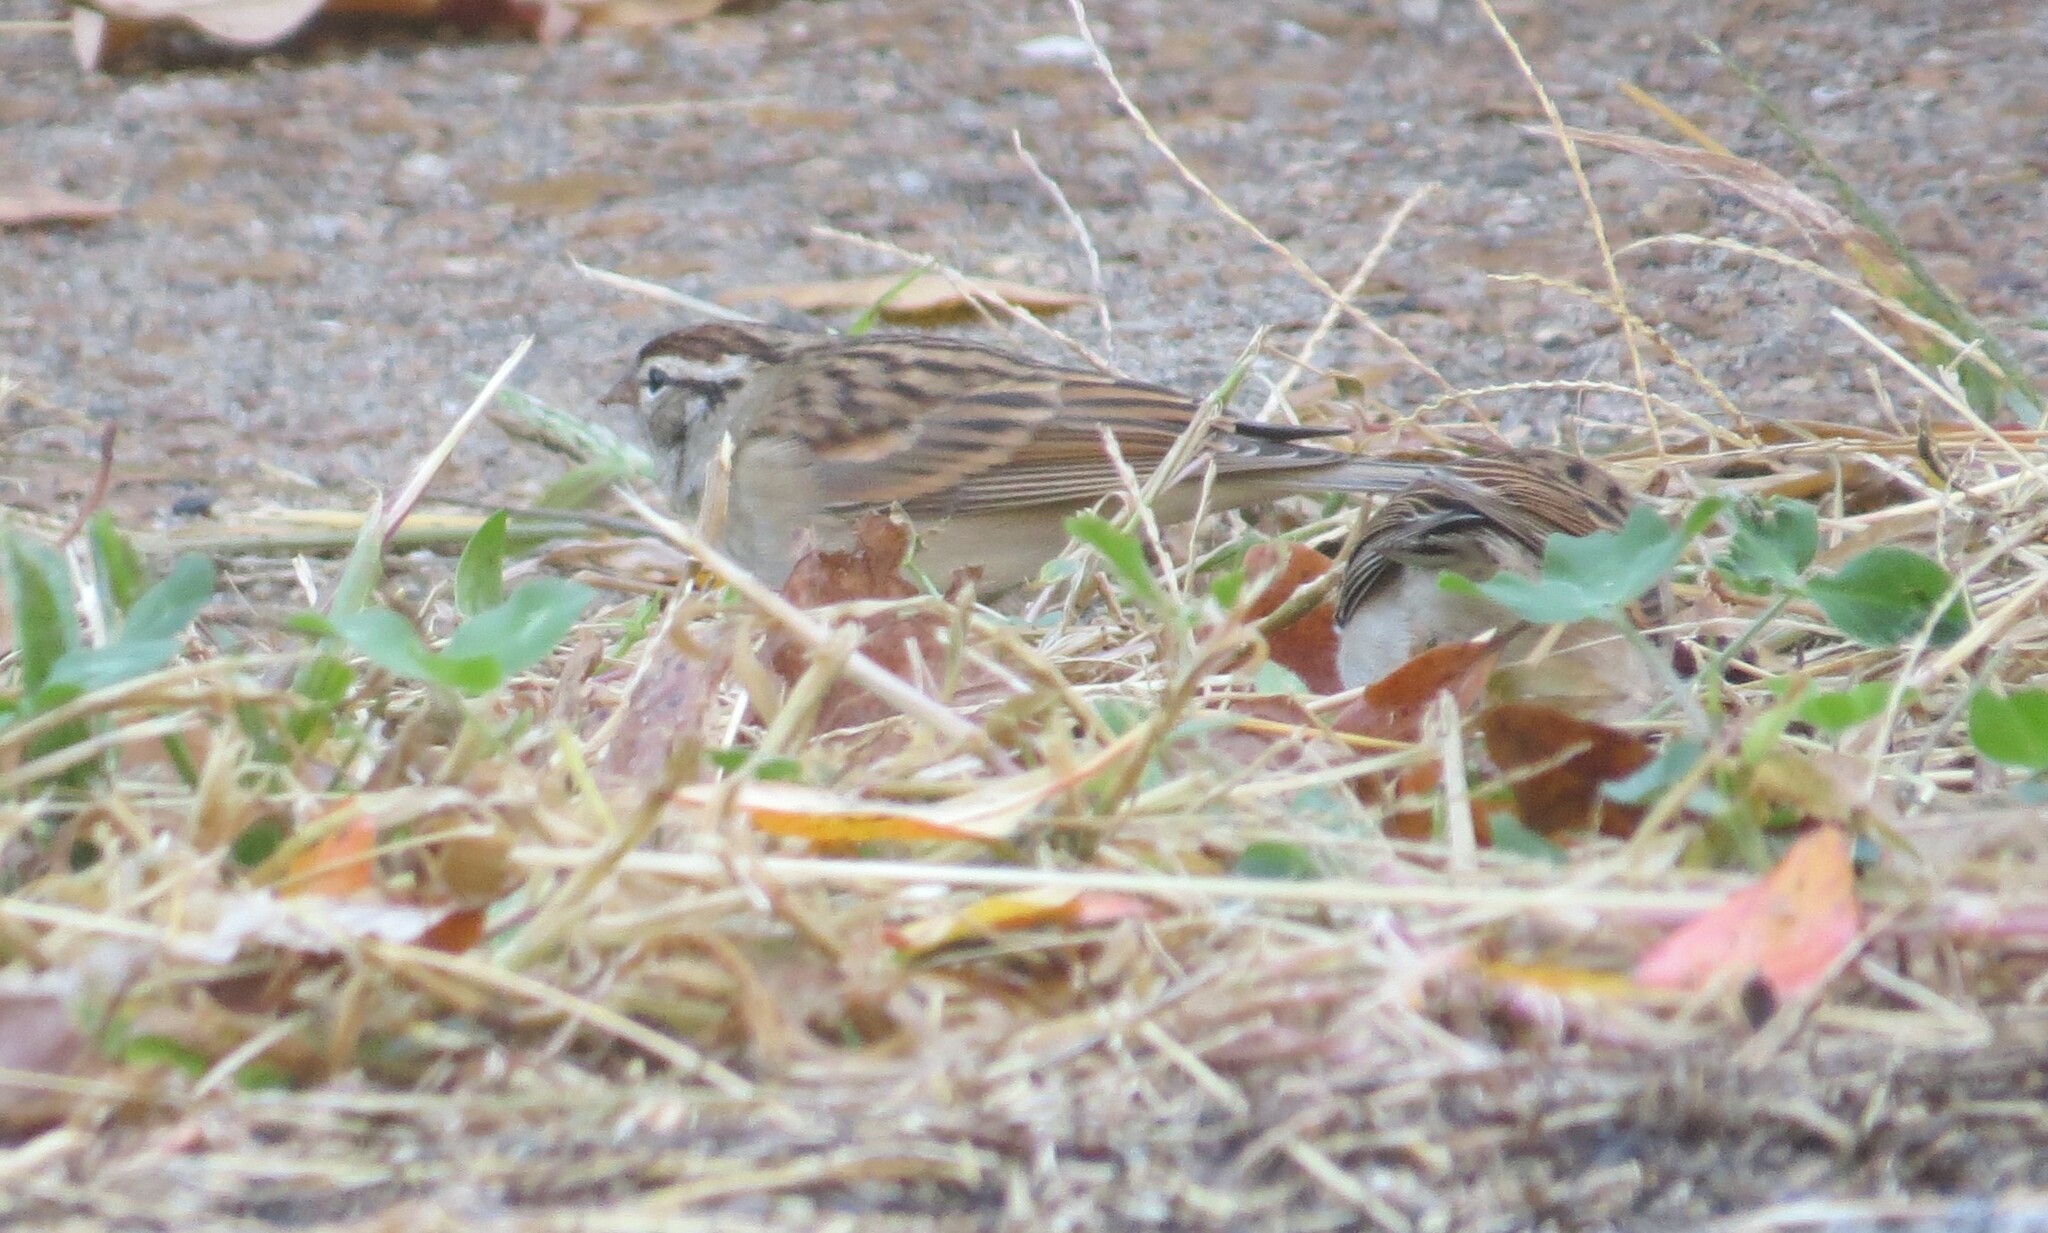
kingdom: Animalia
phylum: Chordata
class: Aves
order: Passeriformes
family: Passerellidae
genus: Spizella
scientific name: Spizella passerina
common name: Chipping sparrow
